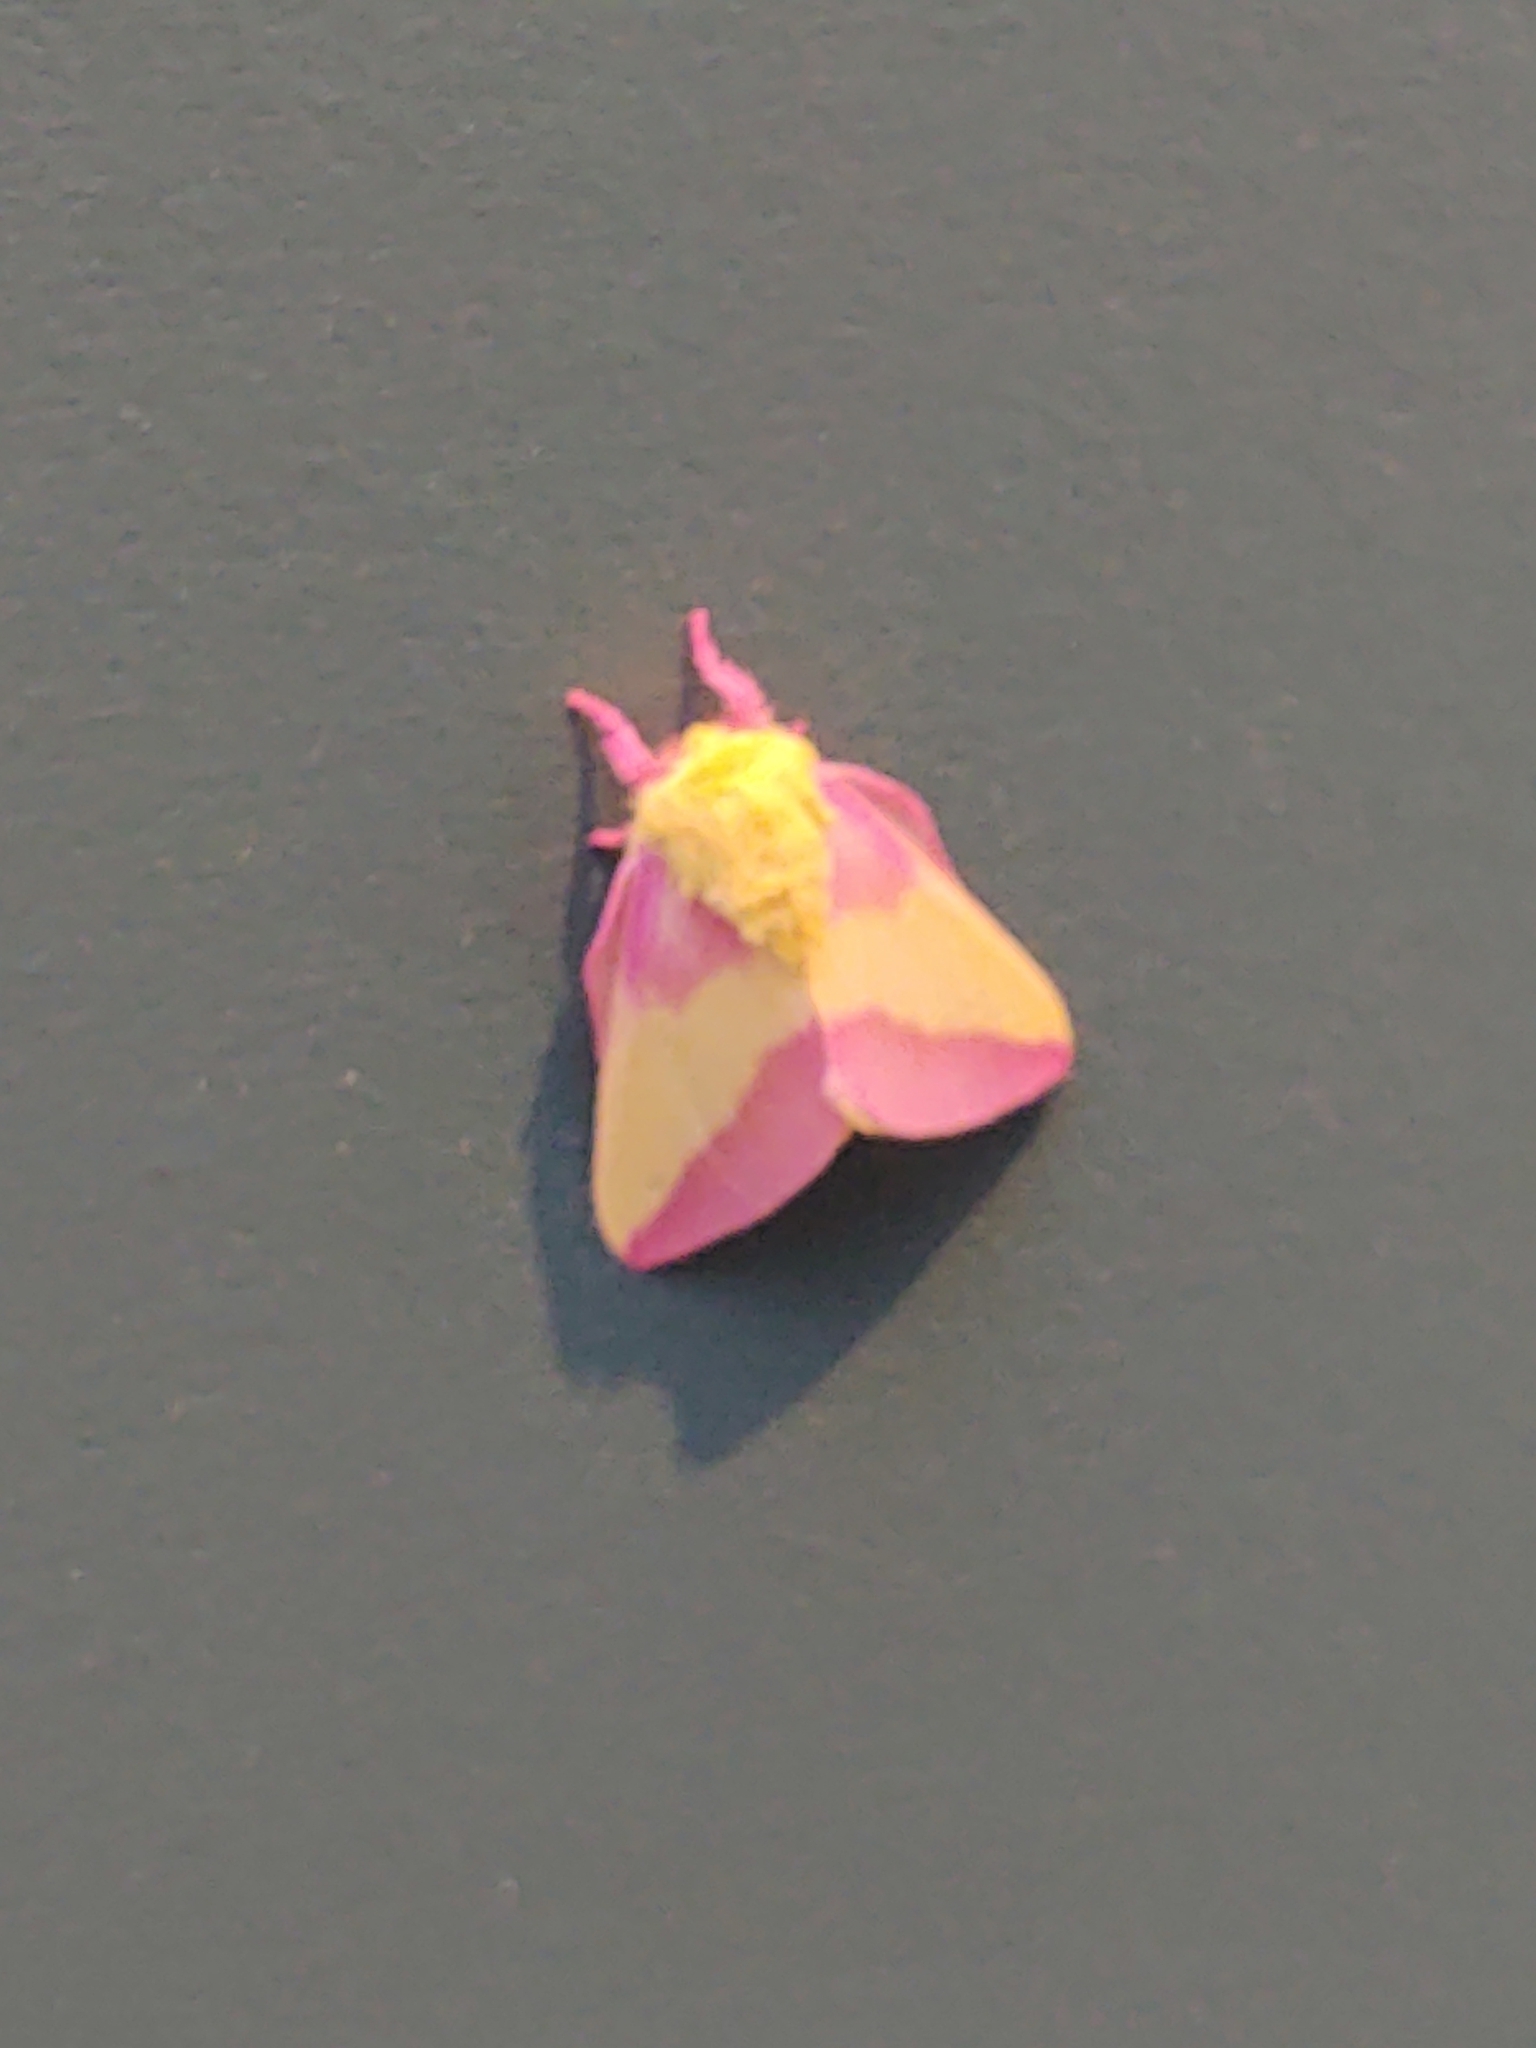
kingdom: Animalia
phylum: Arthropoda
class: Insecta
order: Lepidoptera
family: Saturniidae
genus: Dryocampa
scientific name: Dryocampa rubicunda
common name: Rosy maple moth
